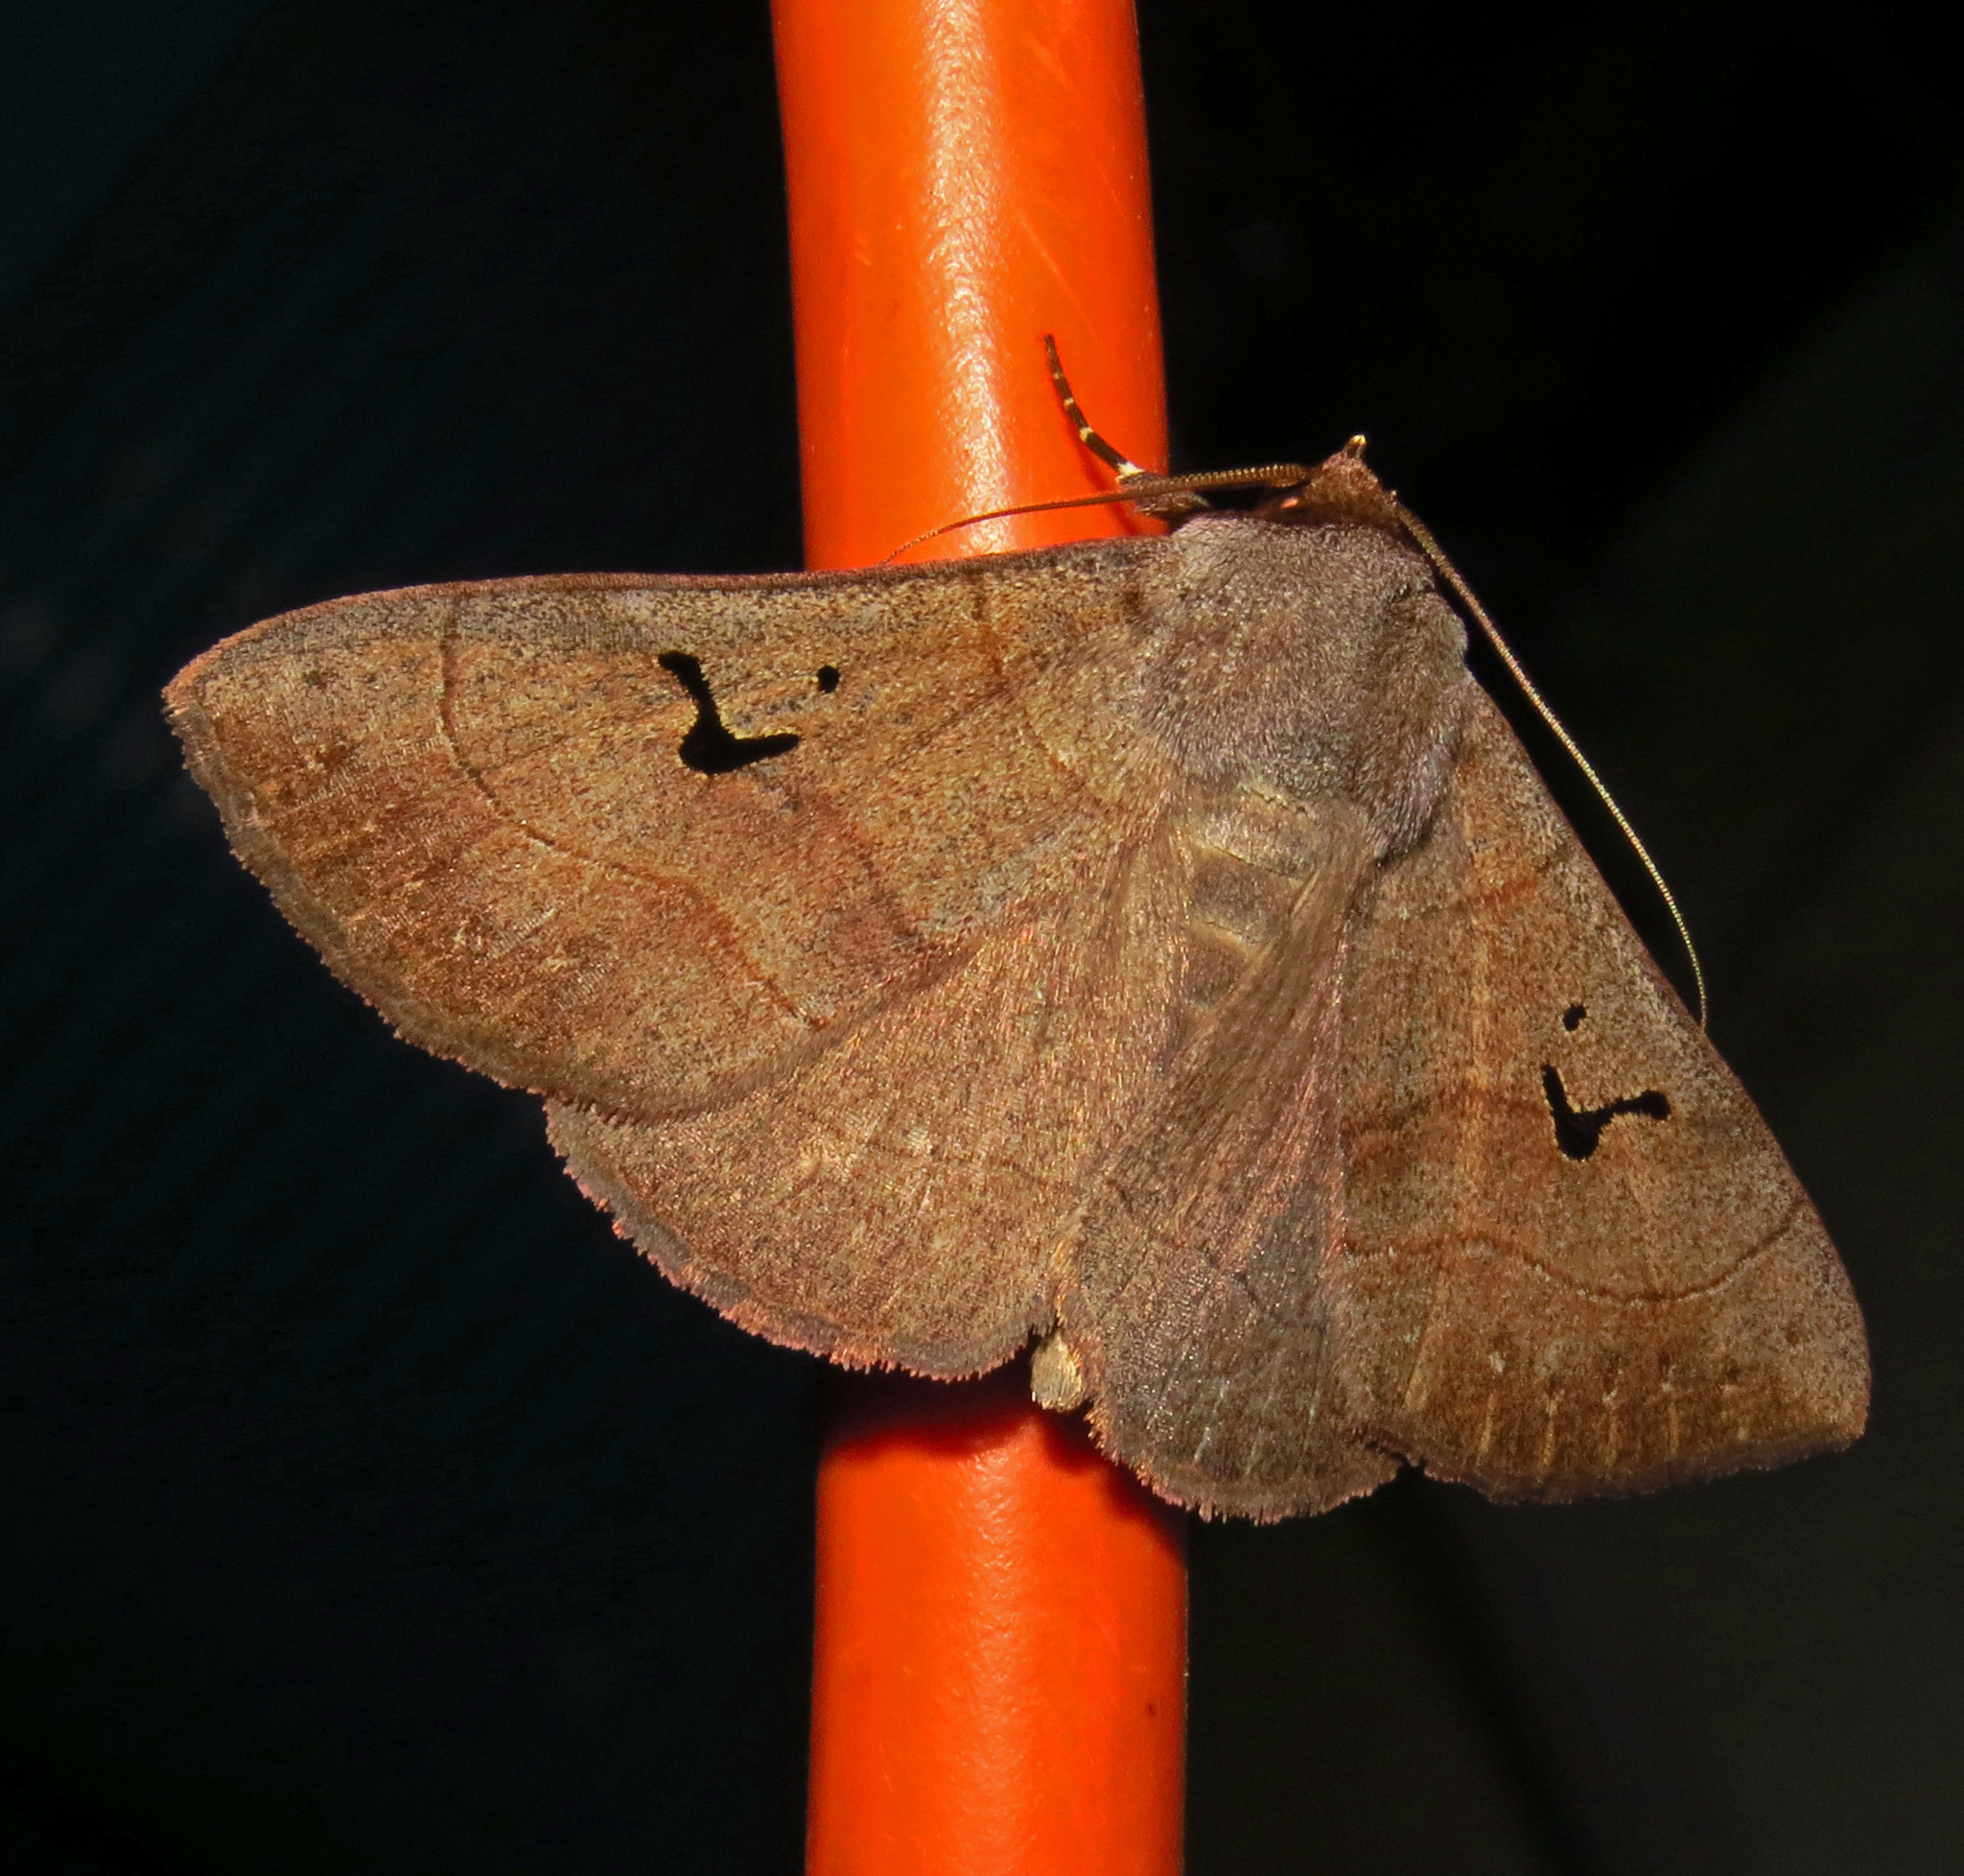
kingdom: Animalia
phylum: Arthropoda
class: Insecta
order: Lepidoptera
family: Erebidae
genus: Panopoda
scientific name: Panopoda carneicosta
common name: Brown panopoda moth
